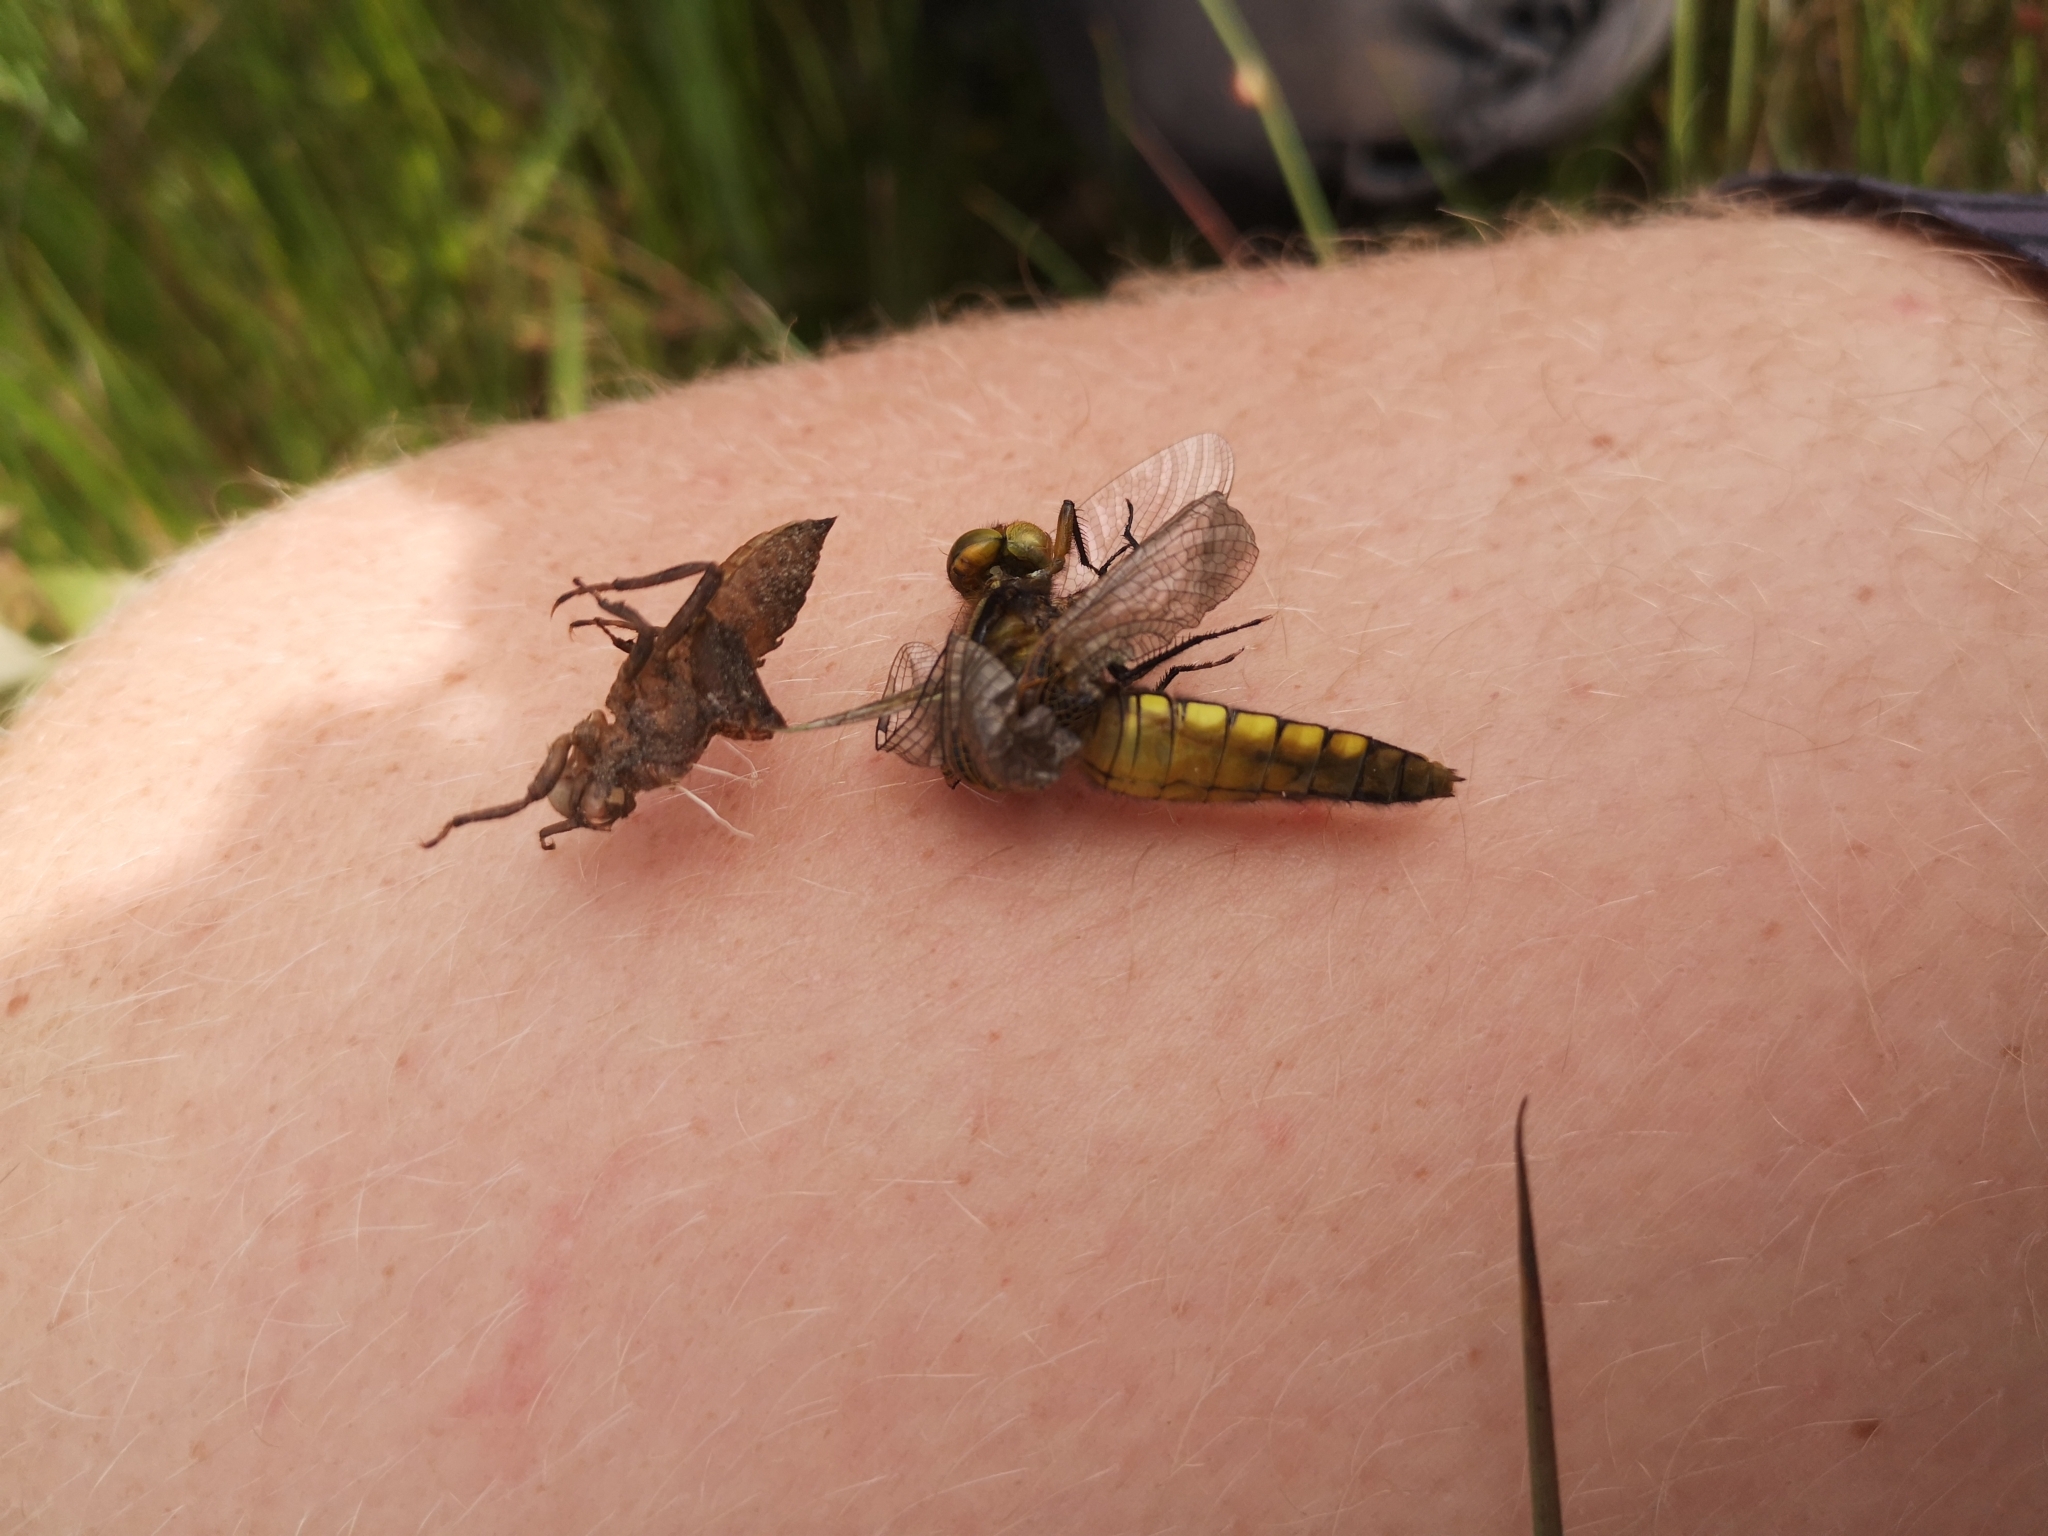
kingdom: Animalia
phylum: Arthropoda
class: Insecta
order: Odonata
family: Libellulidae
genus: Libellula
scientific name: Libellula depressa
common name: Broad-bodied chaser
